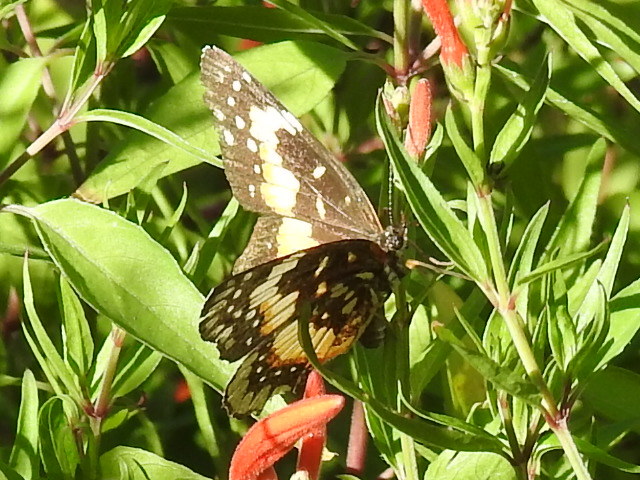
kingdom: Animalia
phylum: Arthropoda
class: Insecta
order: Lepidoptera
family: Nymphalidae
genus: Chlosyne
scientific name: Chlosyne lacinia
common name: Bordered patch
